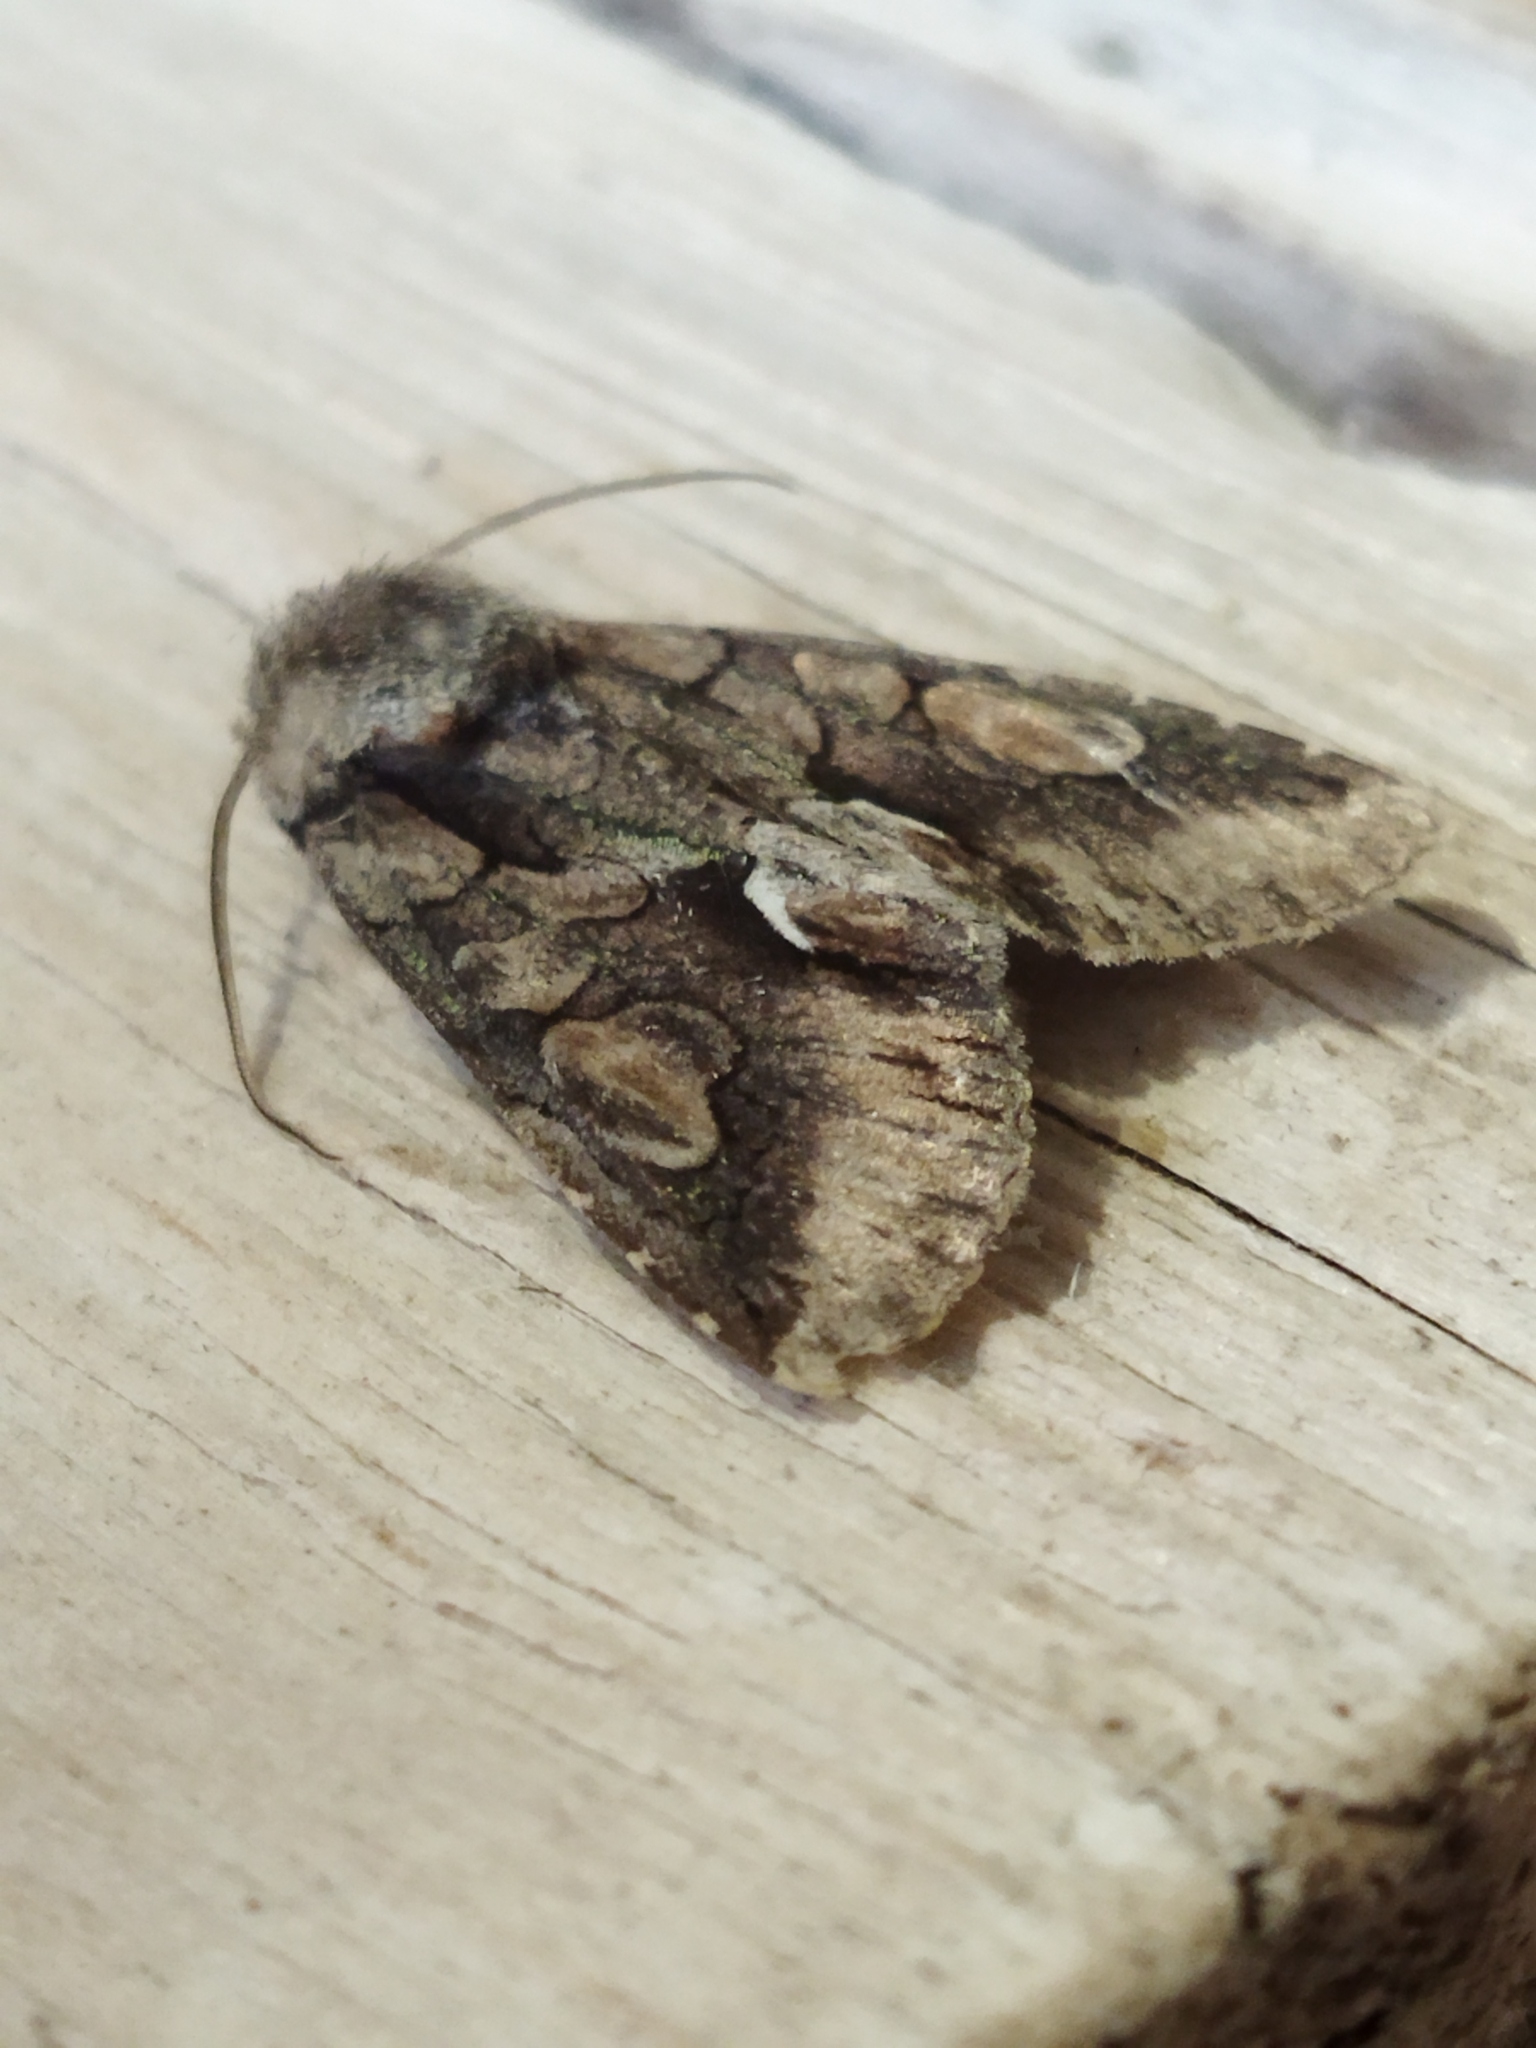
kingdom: Animalia
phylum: Arthropoda
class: Insecta
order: Lepidoptera
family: Noctuidae
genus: Allophyes
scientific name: Allophyes oxyacanthae
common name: Green-brindled crescent
